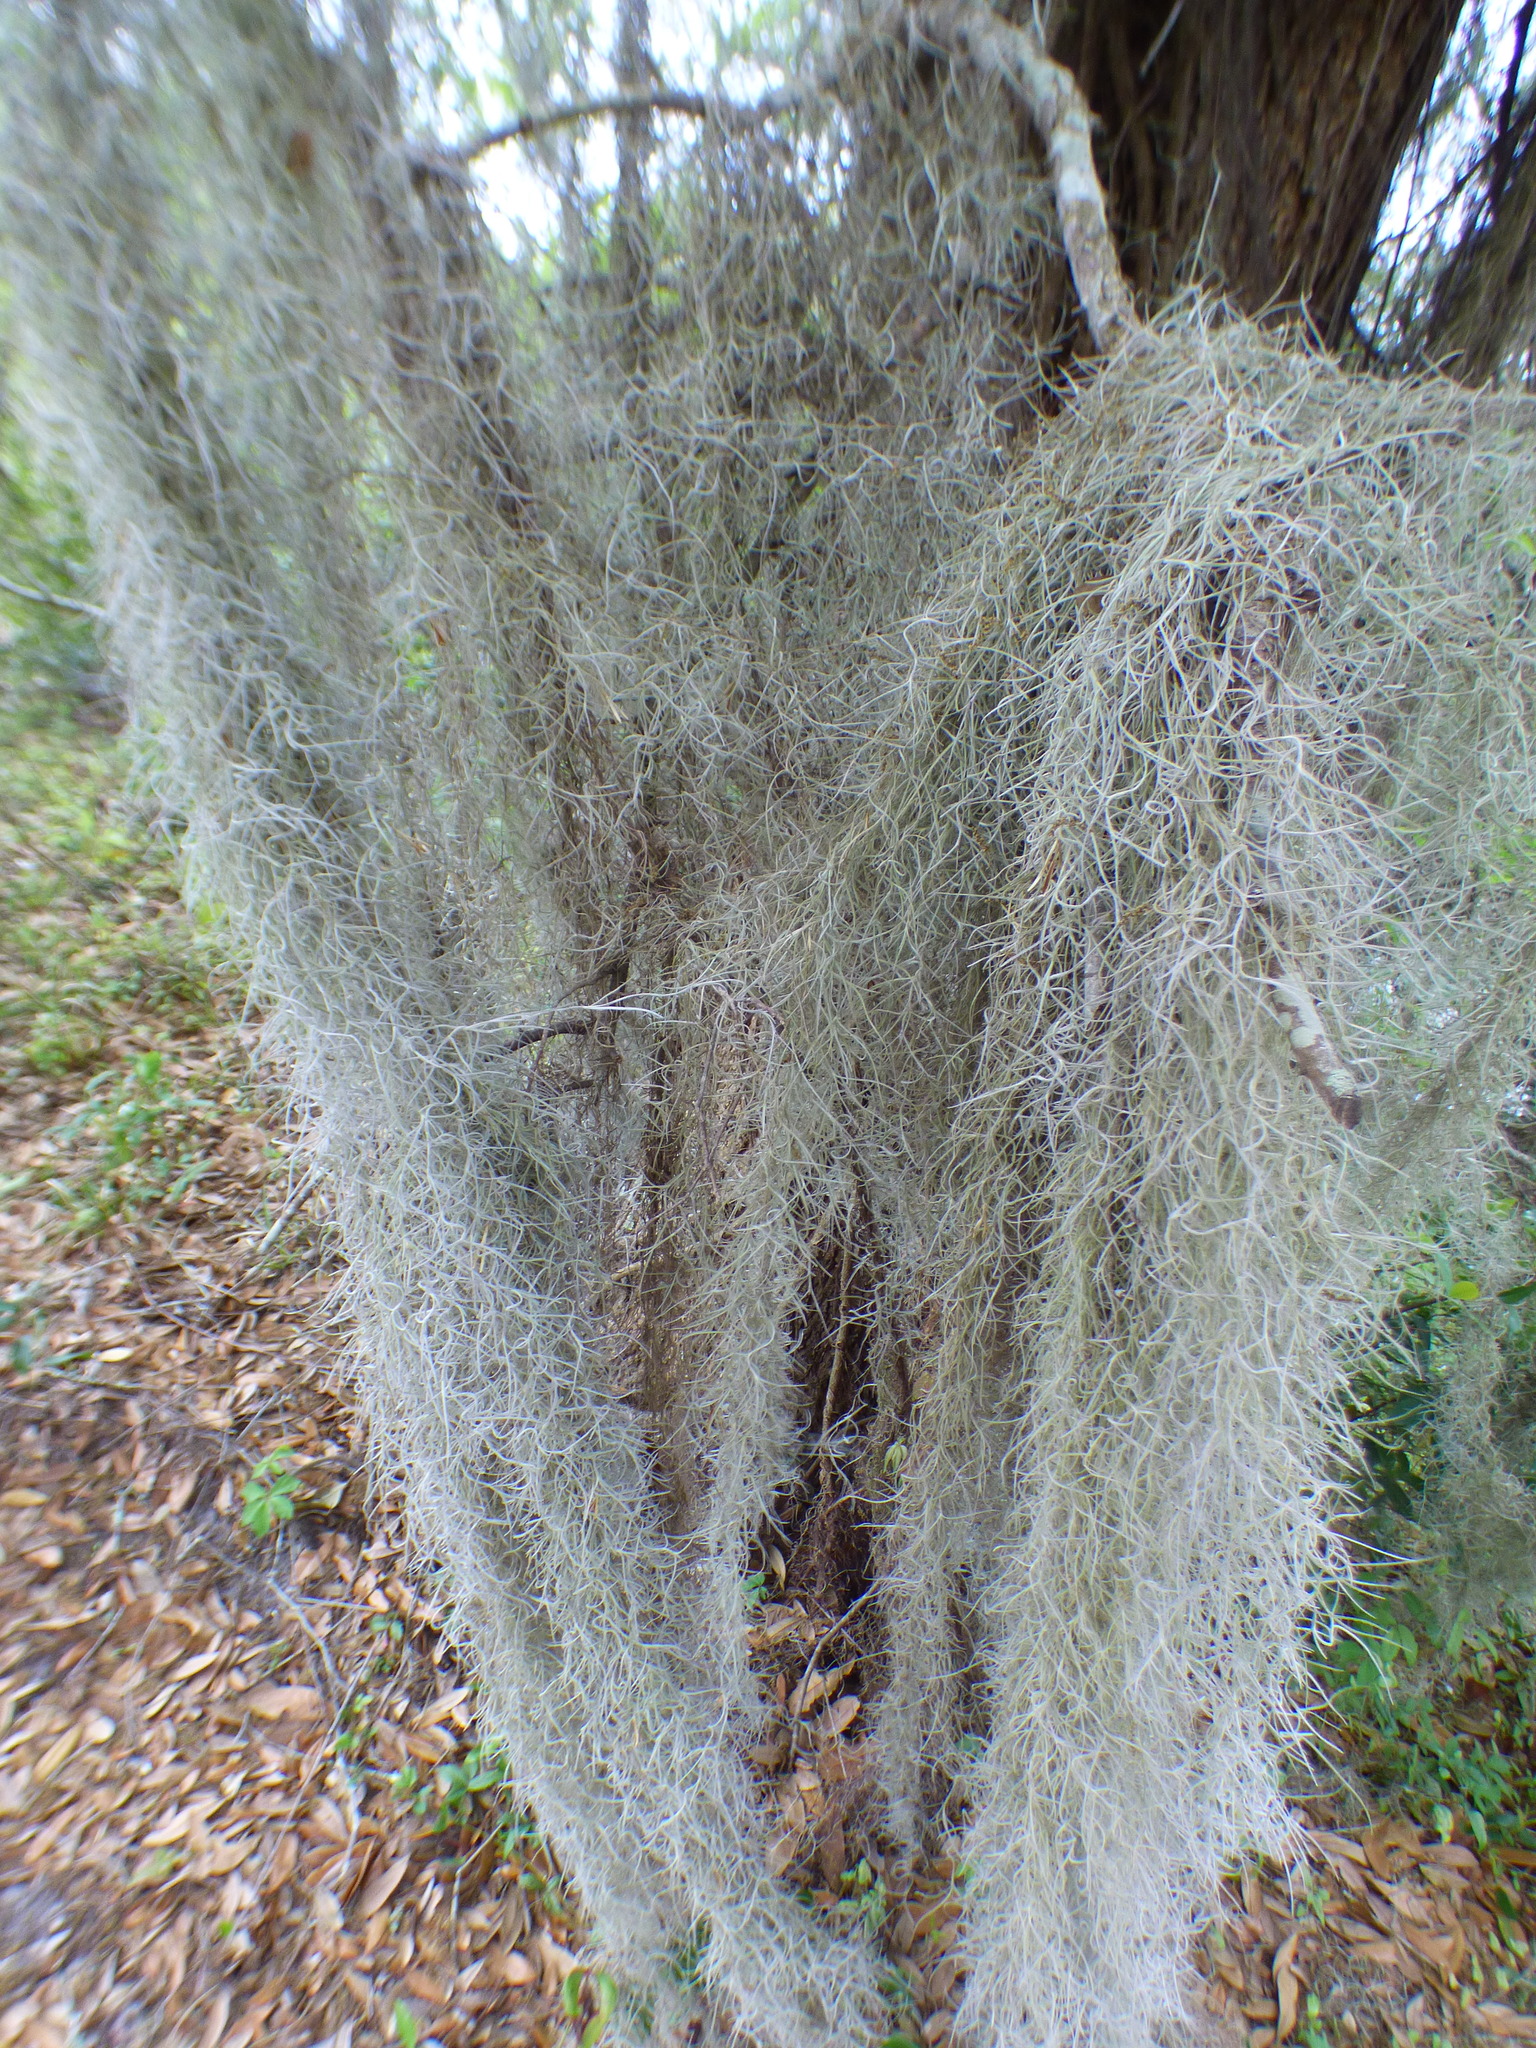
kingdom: Plantae
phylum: Tracheophyta
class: Liliopsida
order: Poales
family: Bromeliaceae
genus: Tillandsia
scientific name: Tillandsia usneoides
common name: Spanish moss
